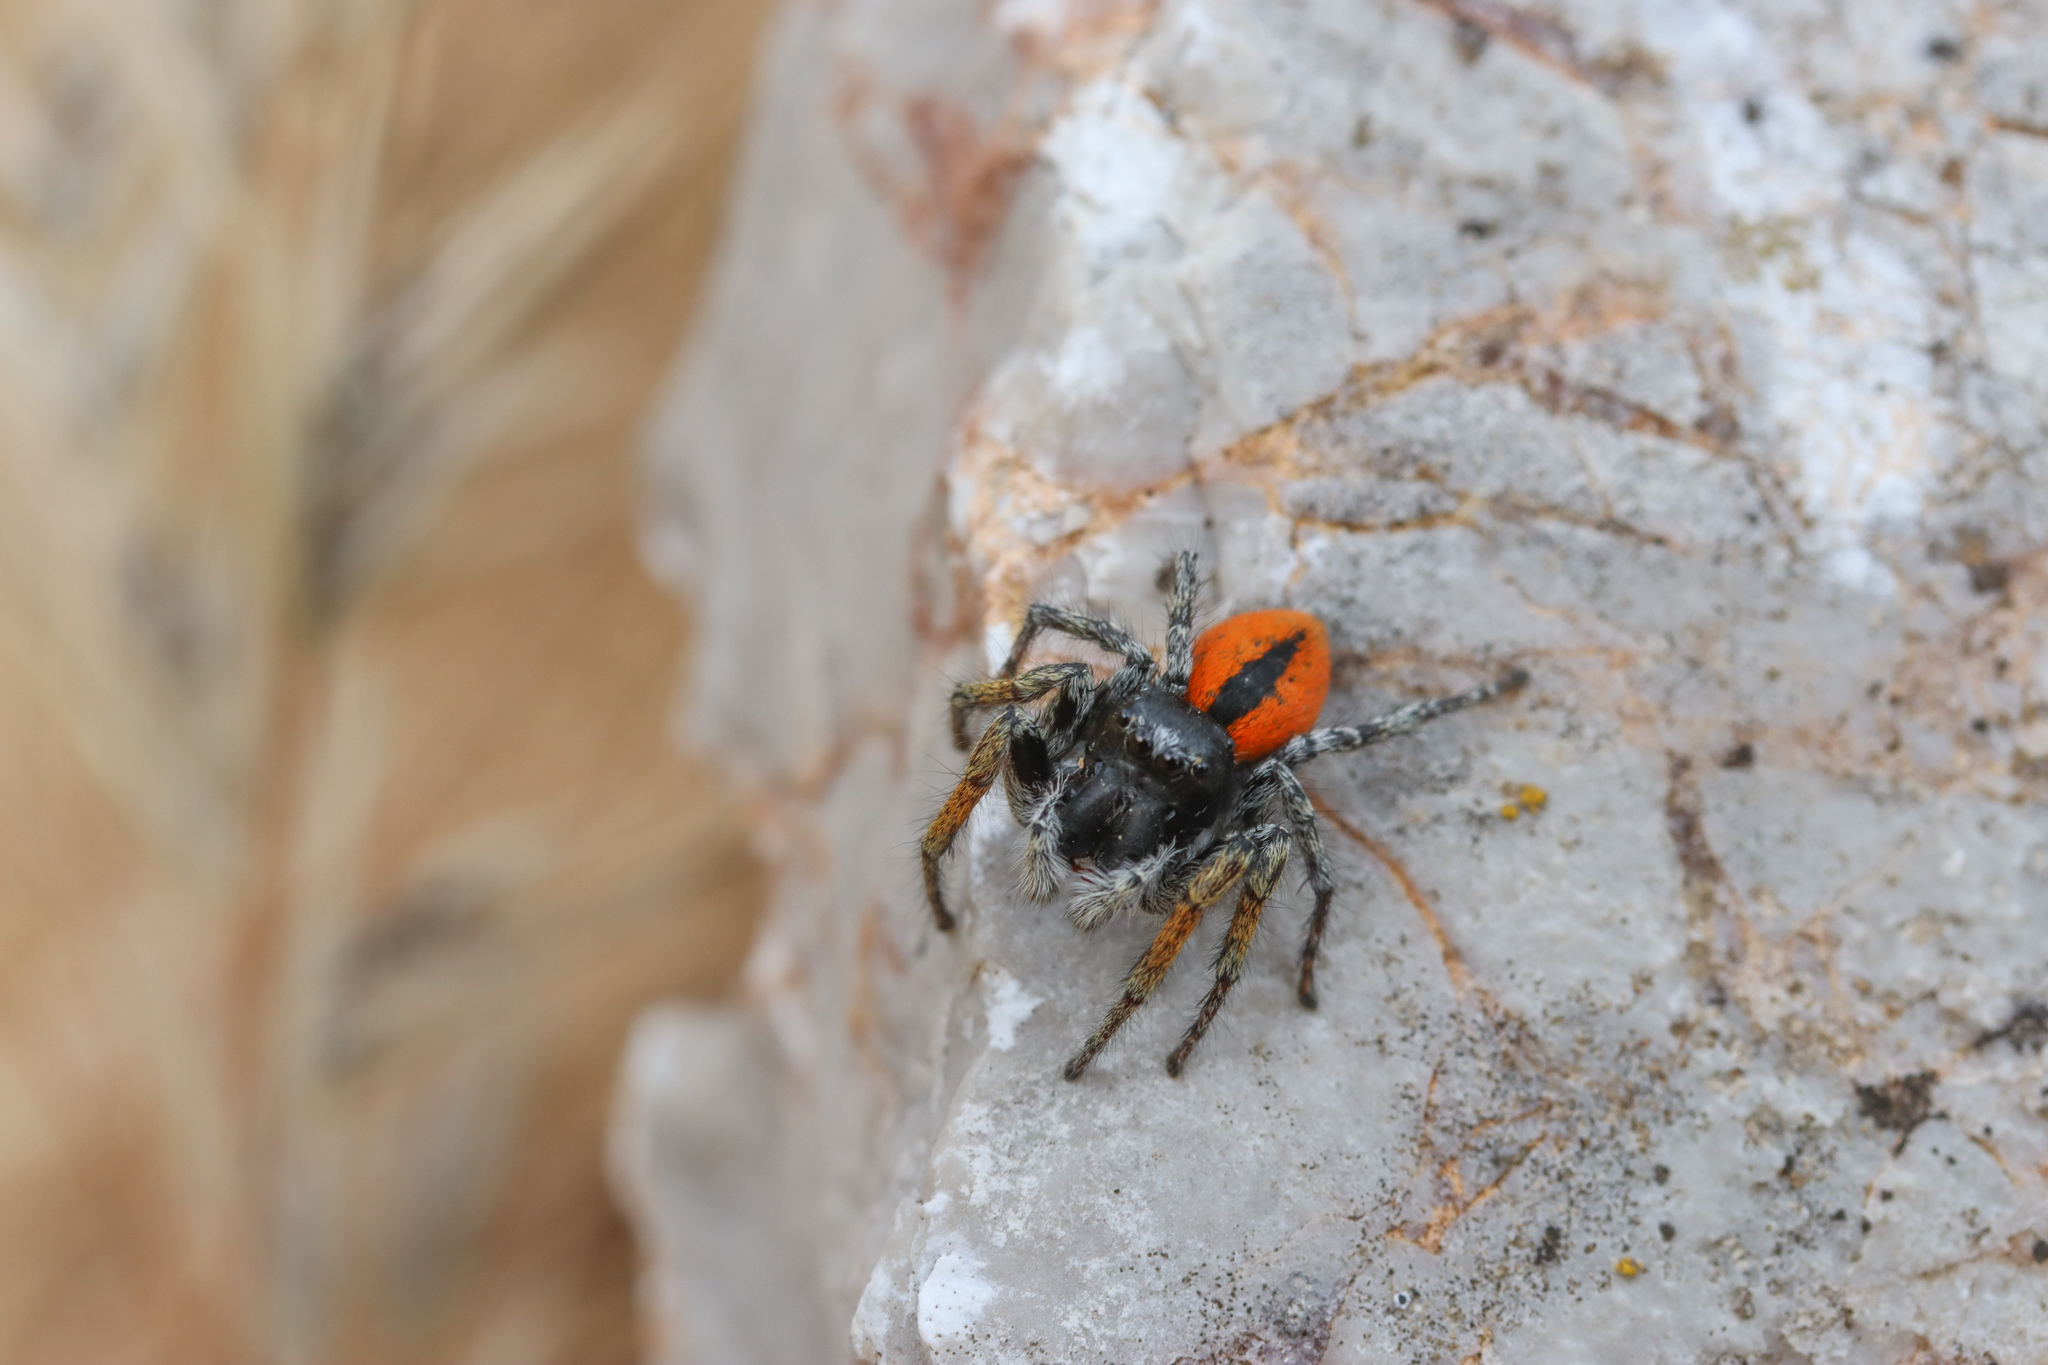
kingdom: Animalia
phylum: Arthropoda
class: Arachnida
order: Araneae
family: Salticidae
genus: Philaeus
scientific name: Philaeus chrysops
